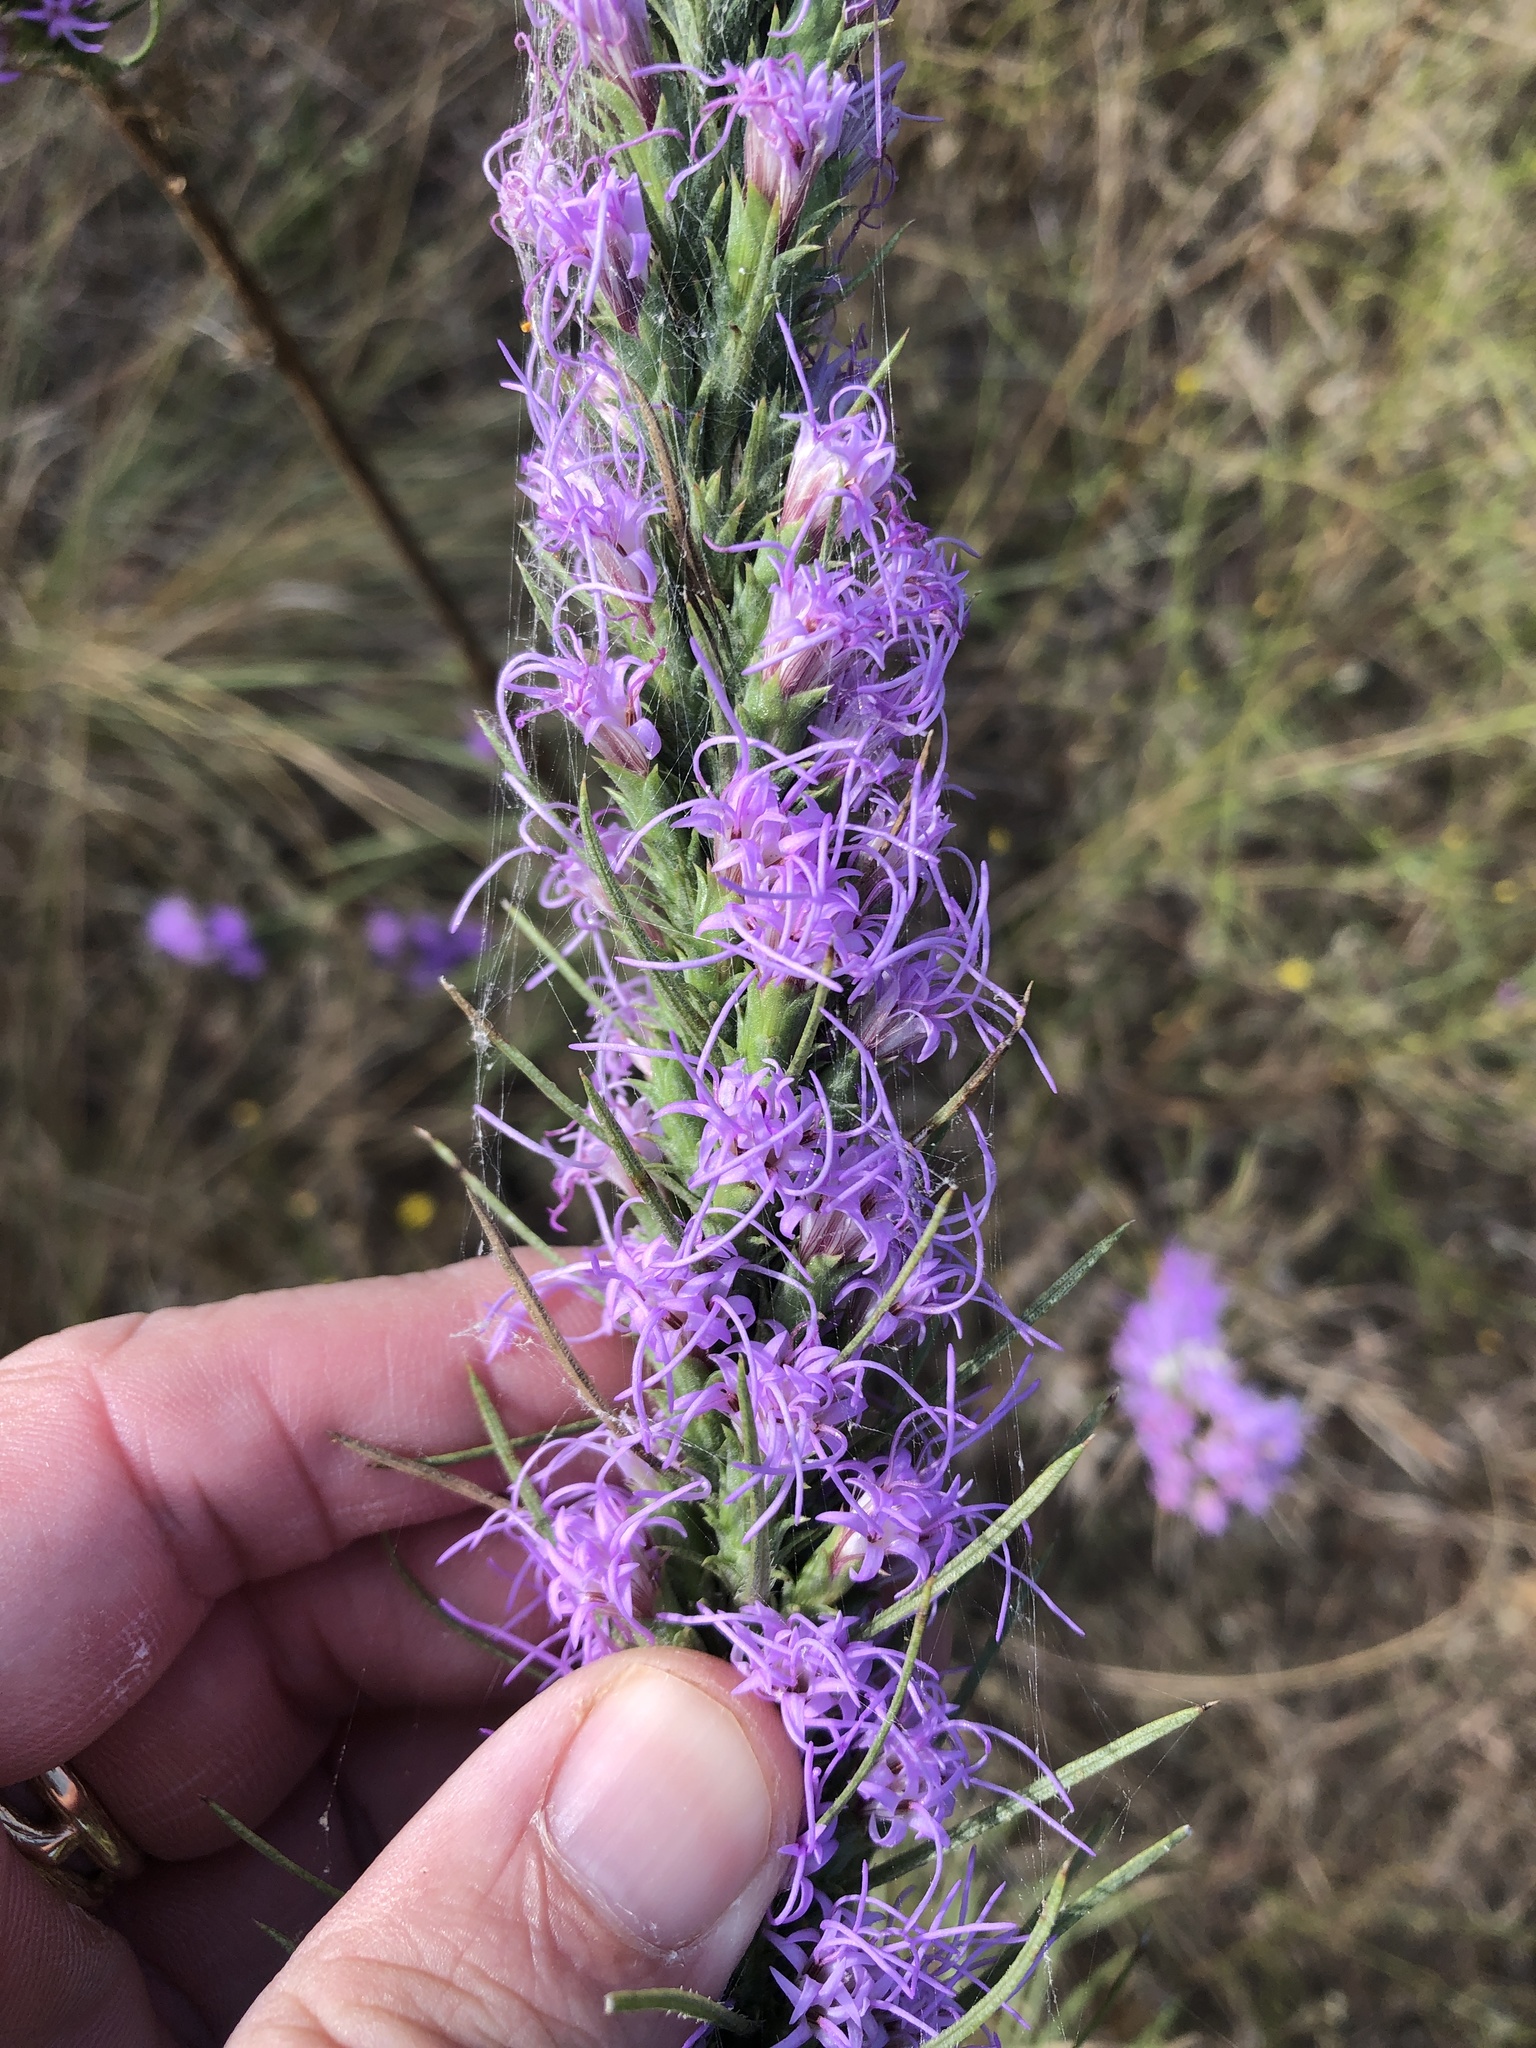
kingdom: Plantae
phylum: Tracheophyta
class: Magnoliopsida
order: Asterales
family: Asteraceae
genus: Liatris
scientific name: Liatris punctata
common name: Dotted gayfeather
